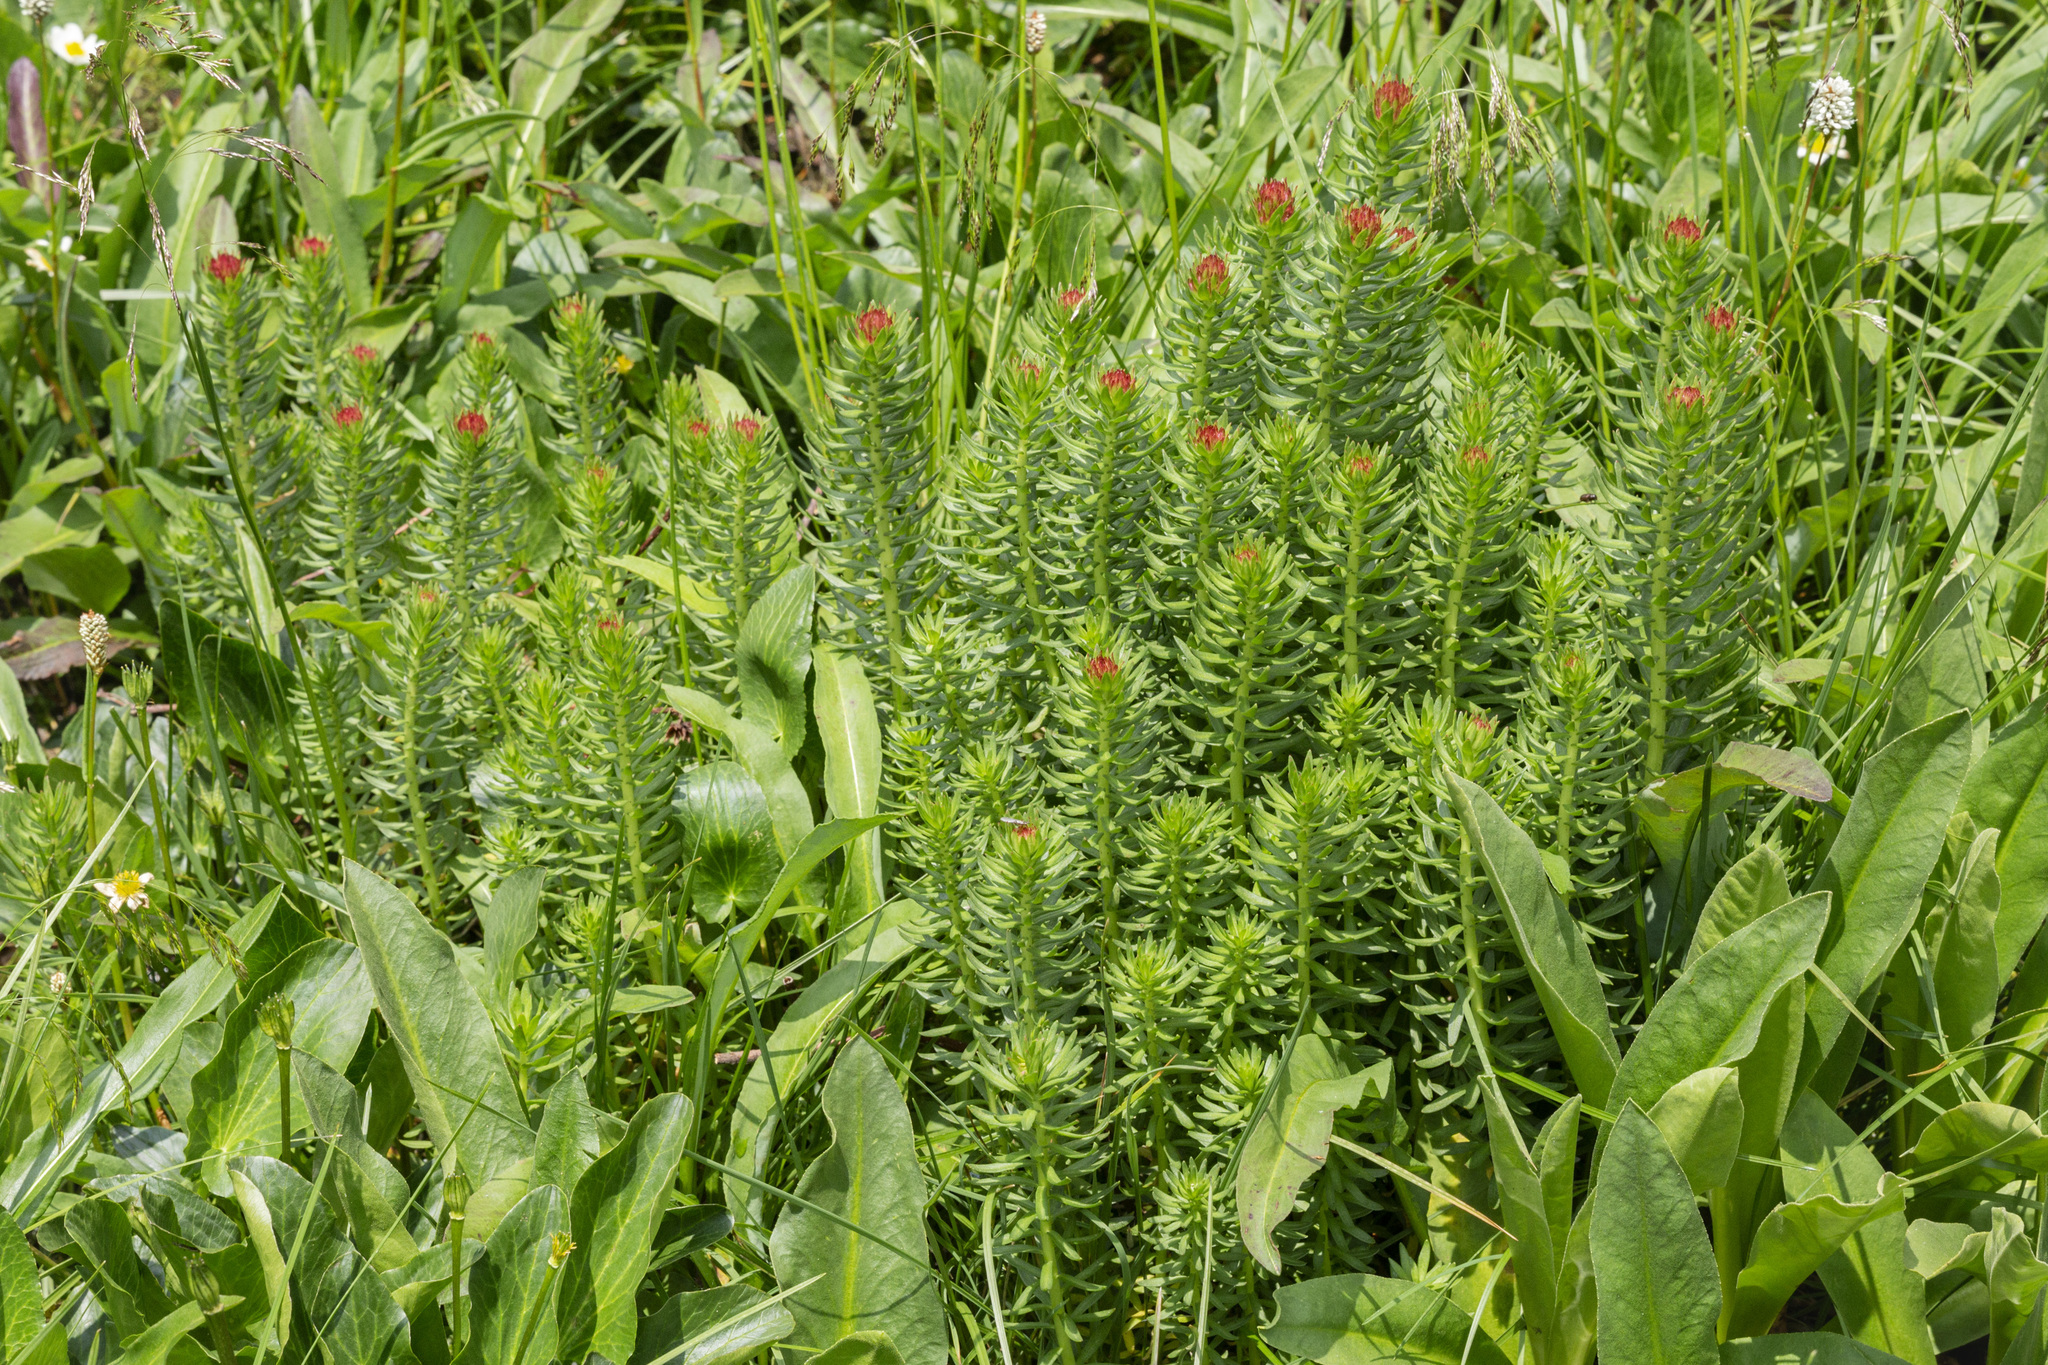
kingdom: Plantae
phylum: Tracheophyta
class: Magnoliopsida
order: Saxifragales
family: Crassulaceae
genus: Rhodiola
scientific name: Rhodiola rhodantha
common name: Red orpine
